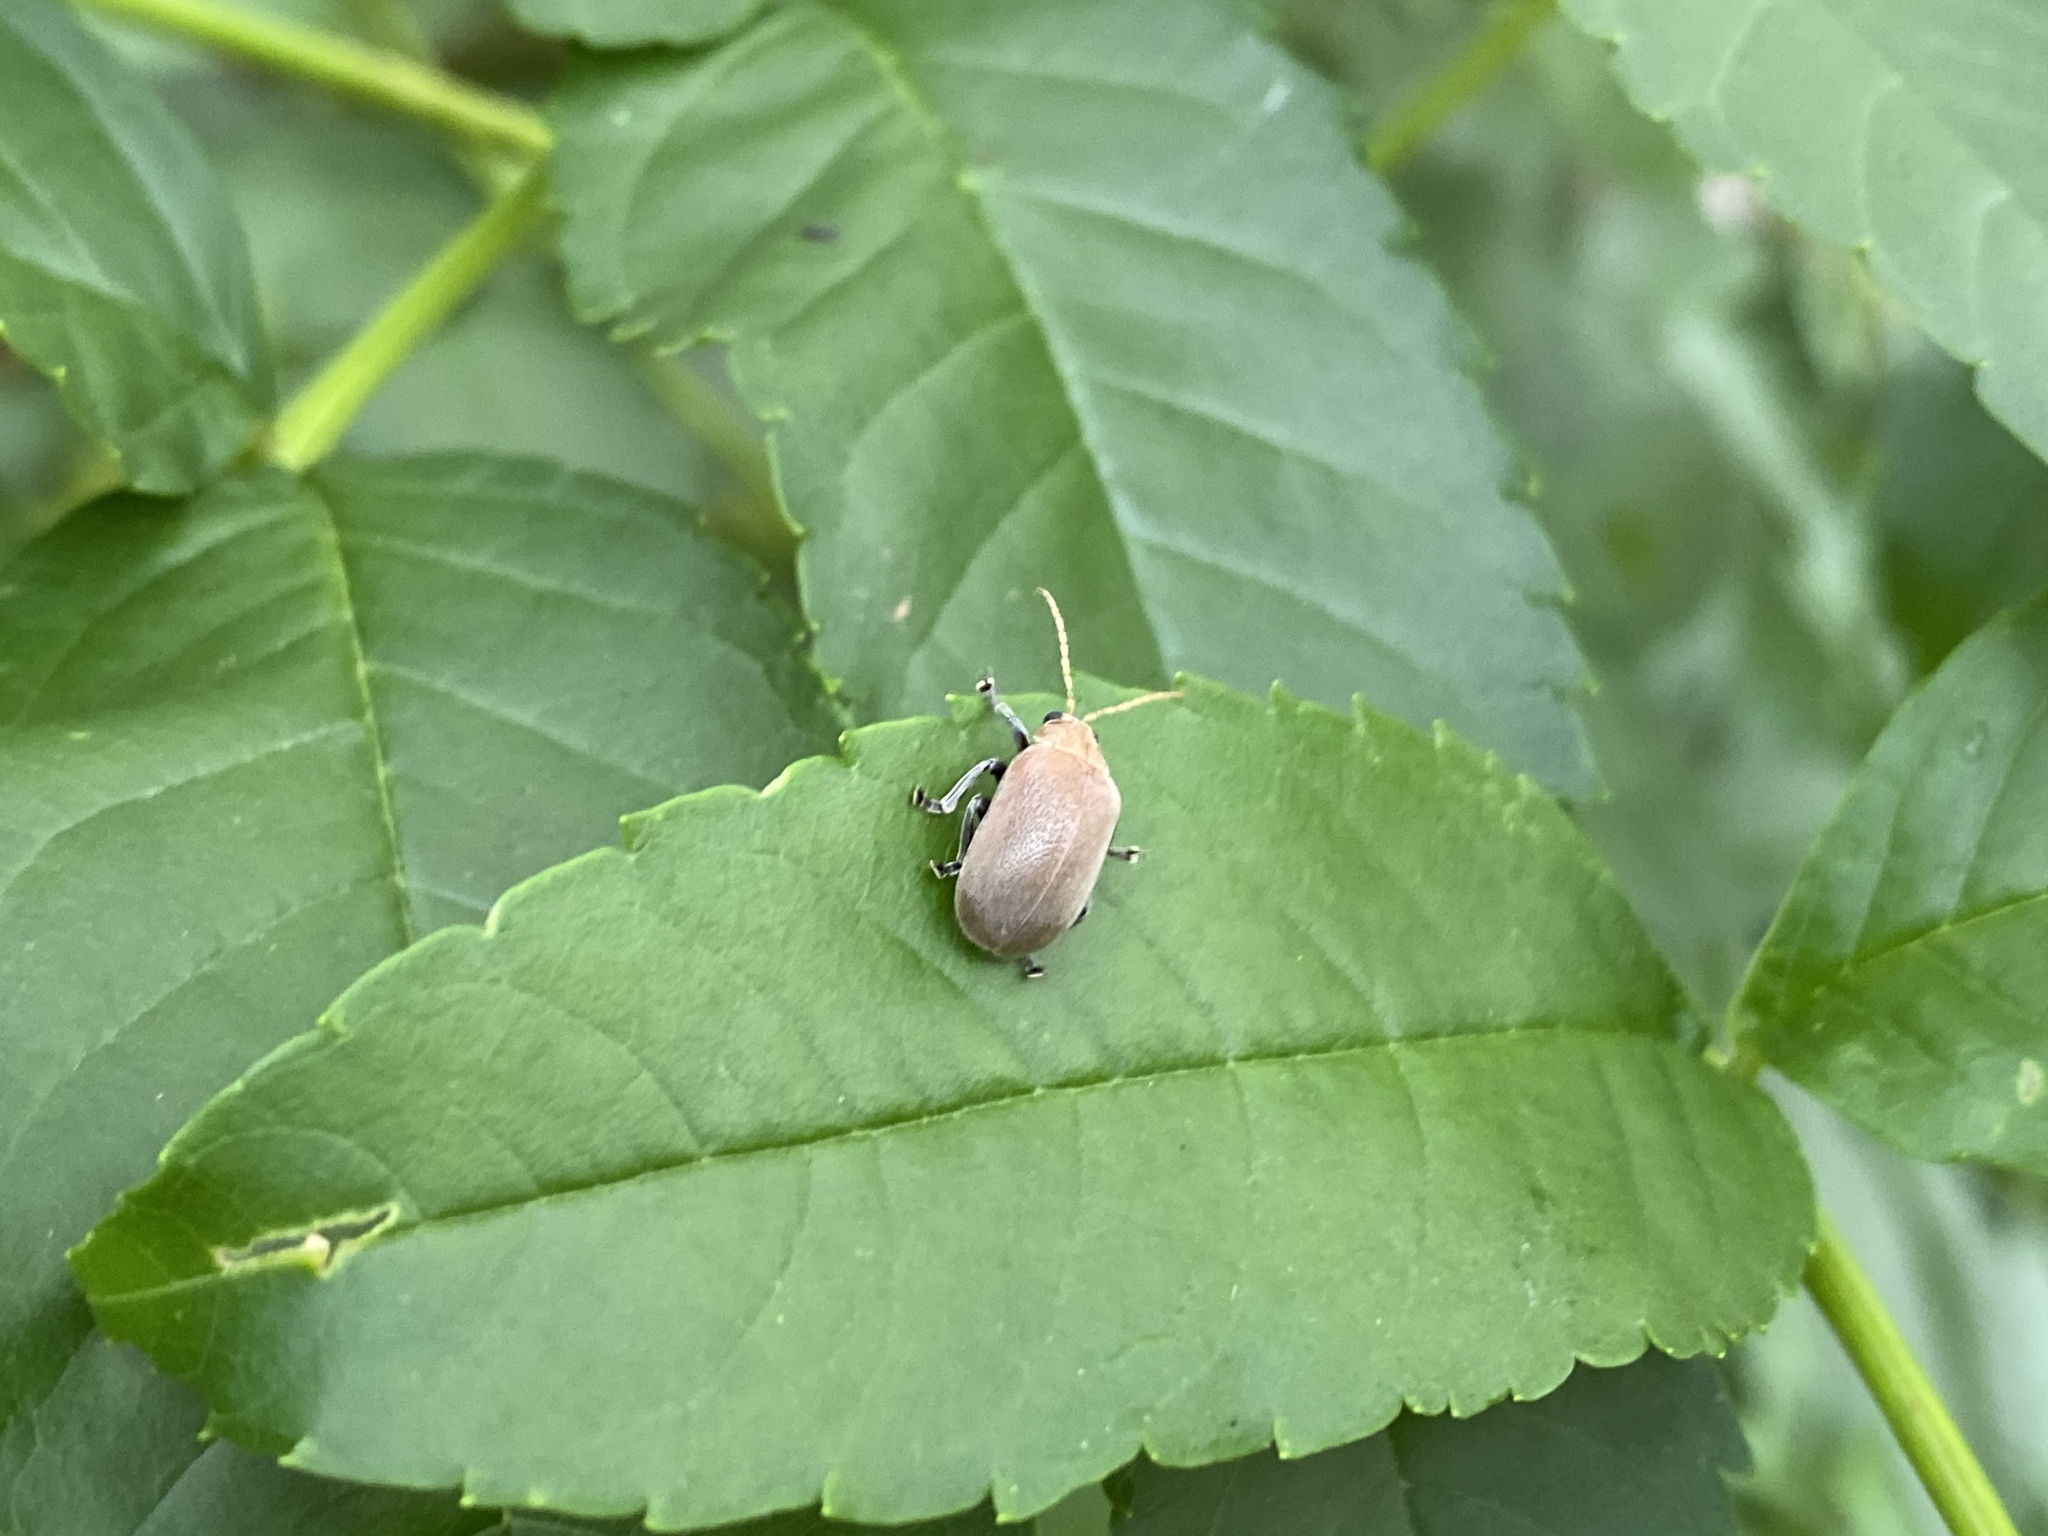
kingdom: Animalia
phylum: Arthropoda
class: Insecta
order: Coleoptera
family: Chrysomelidae
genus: Menippus
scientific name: Menippus
